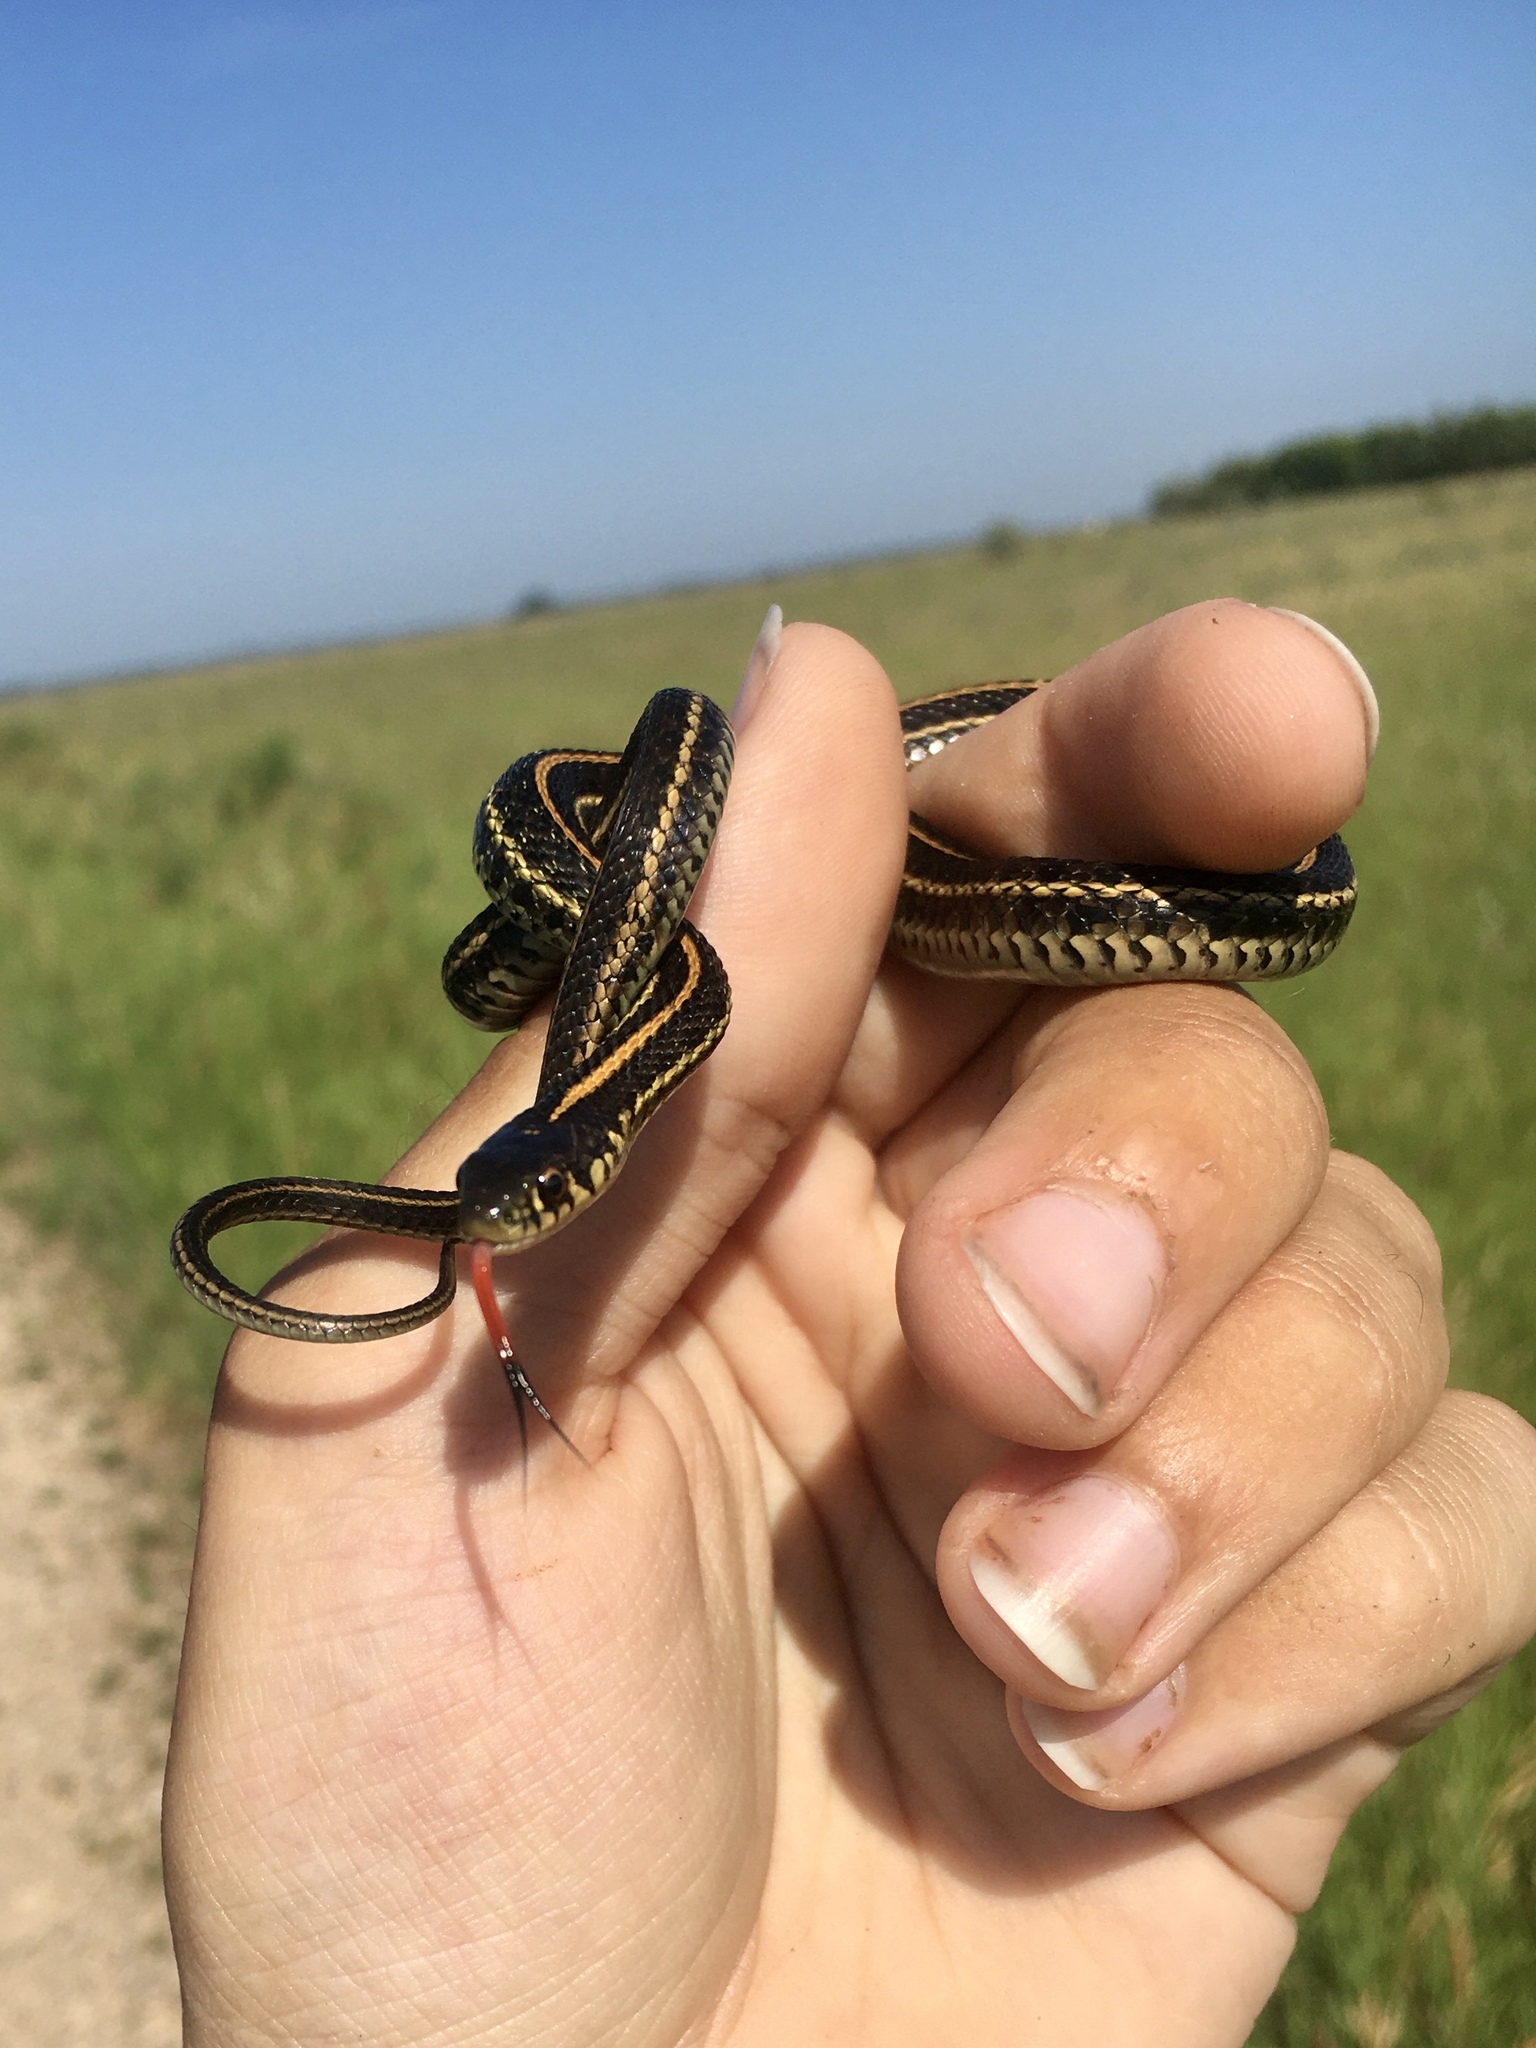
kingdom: Animalia
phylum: Chordata
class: Squamata
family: Colubridae
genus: Thamnophis
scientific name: Thamnophis radix
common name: Plains garter snake
